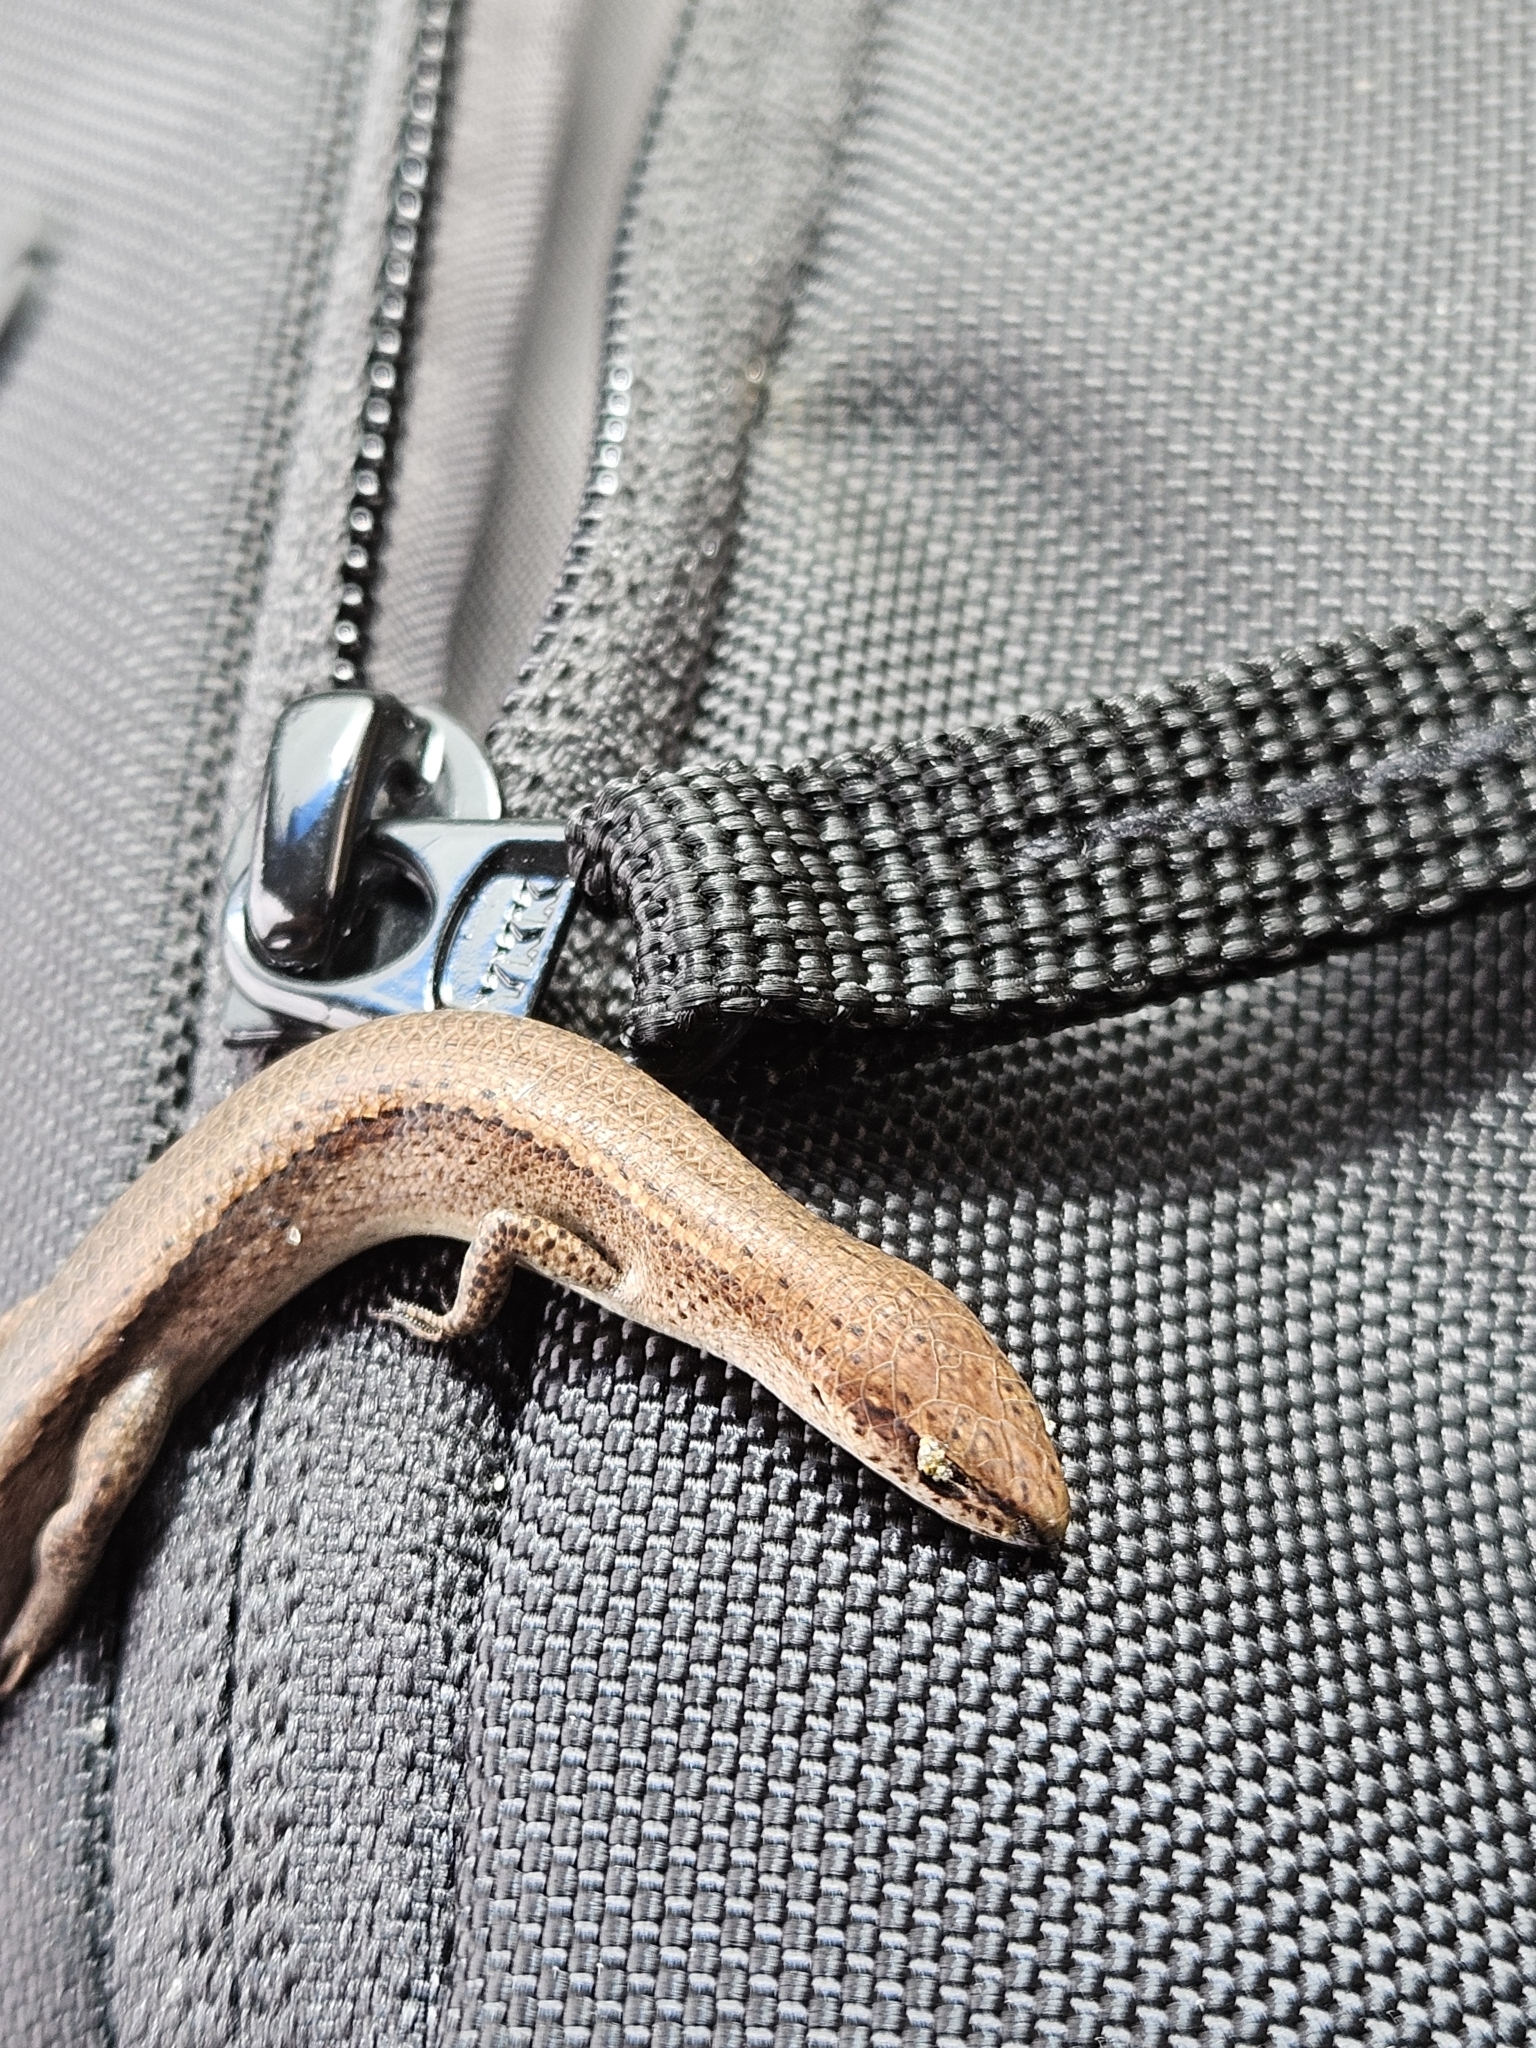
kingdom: Animalia
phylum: Chordata
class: Squamata
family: Scincidae
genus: Lampropholis
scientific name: Lampropholis delicata
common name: Plague skink
